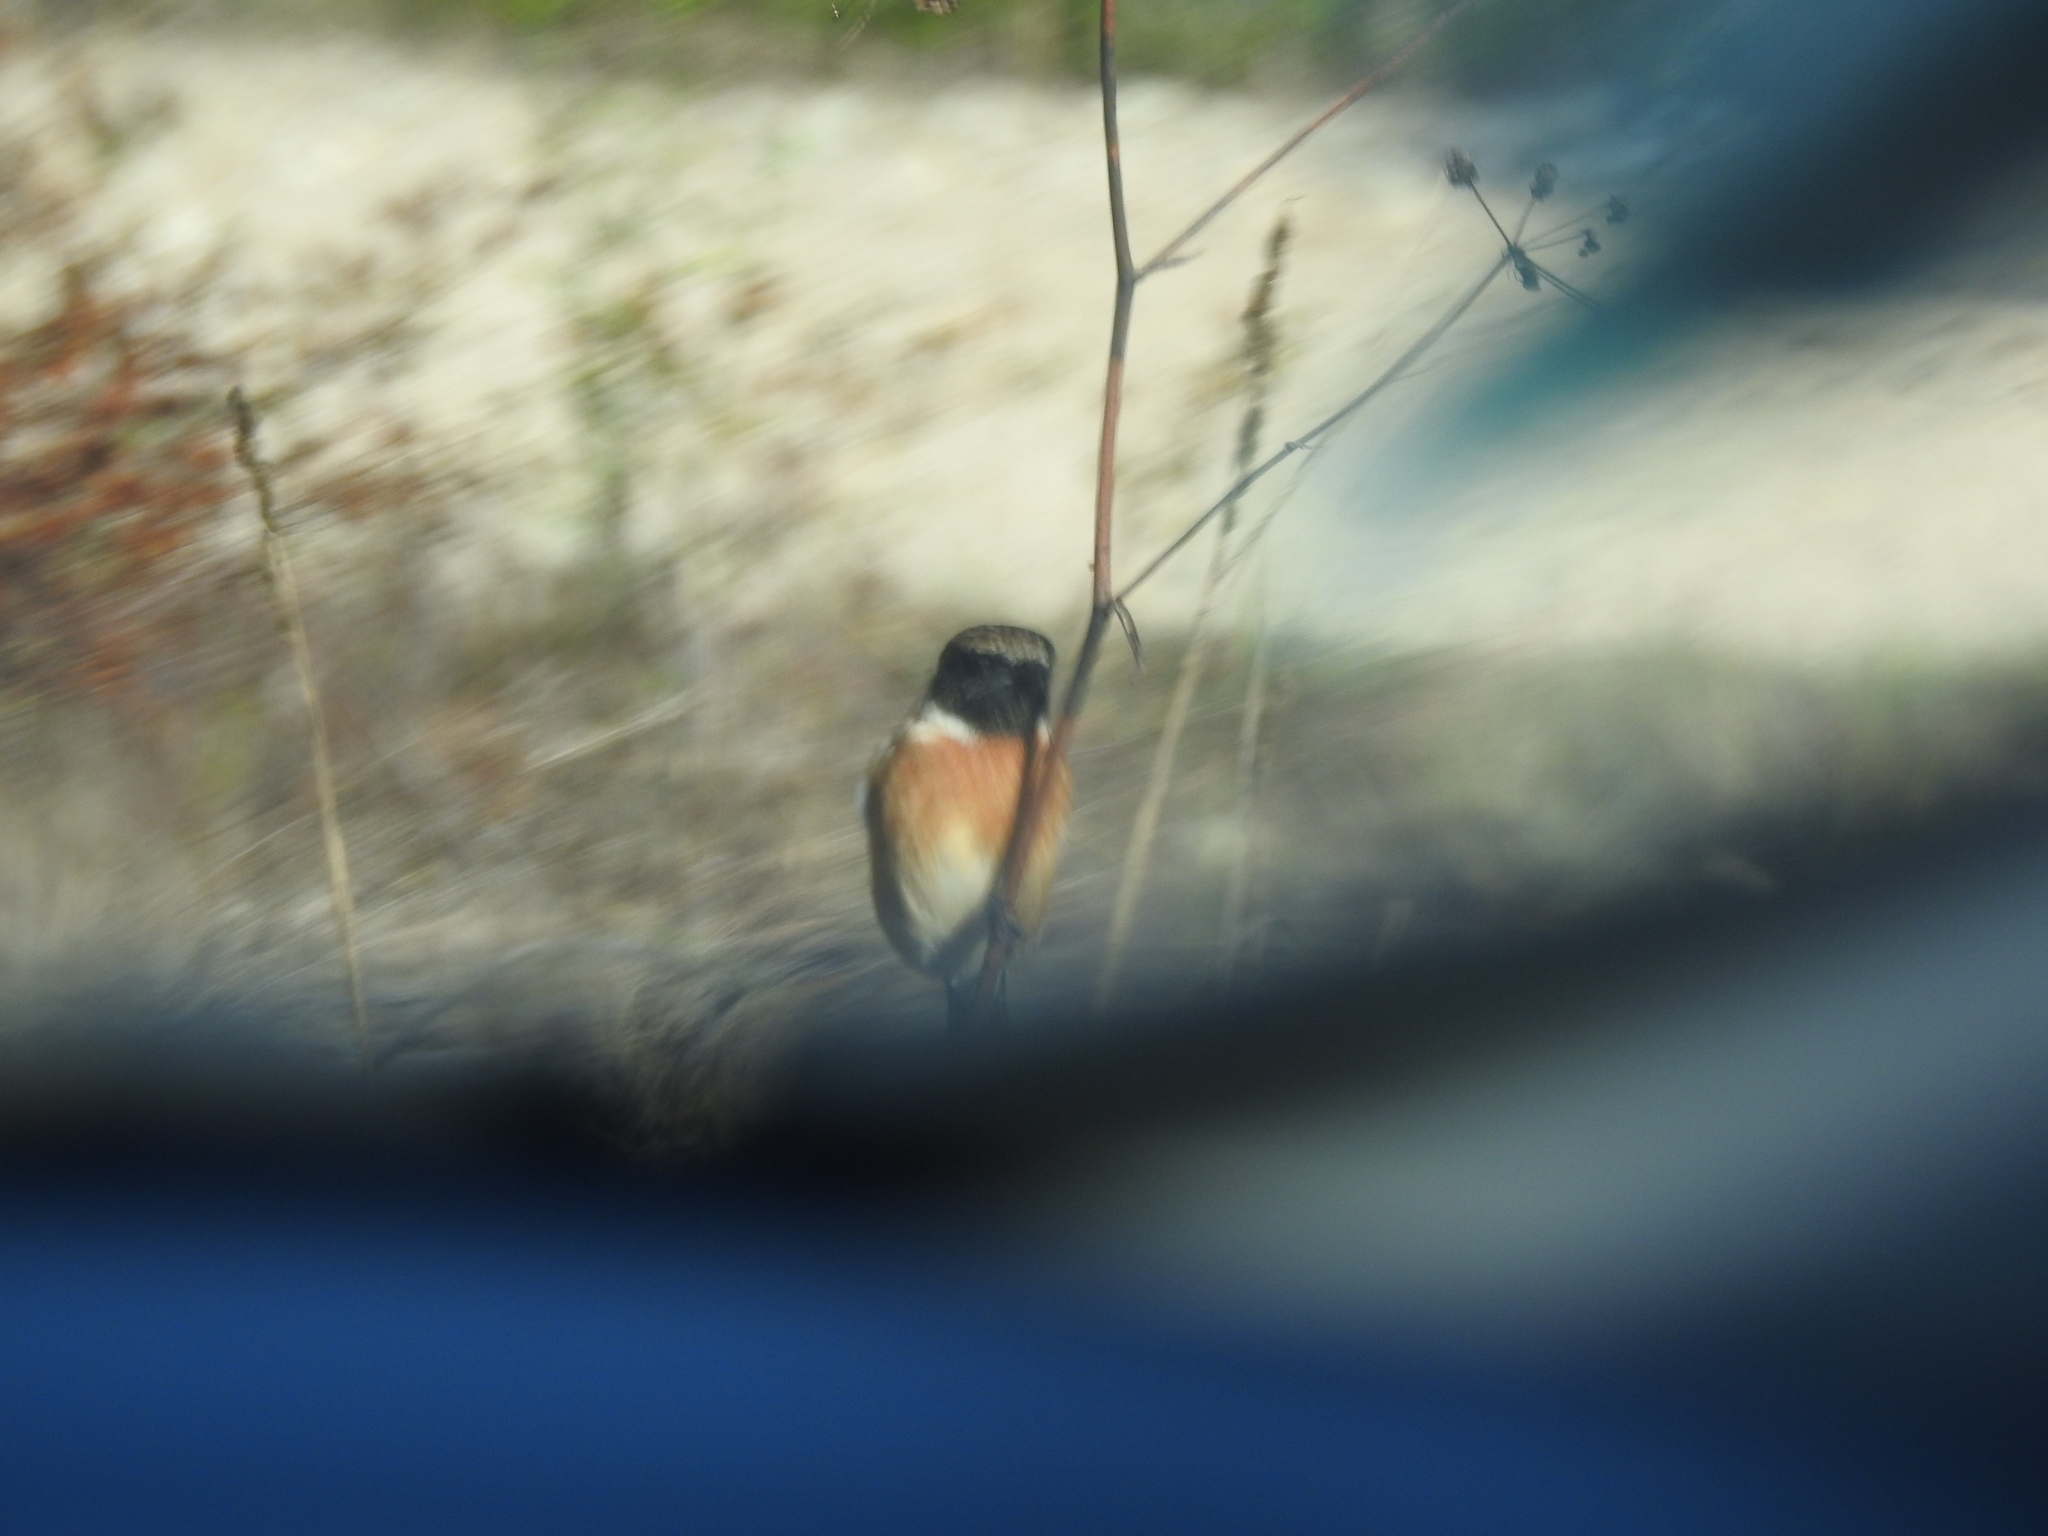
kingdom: Animalia
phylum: Chordata
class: Aves
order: Passeriformes
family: Muscicapidae
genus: Saxicola
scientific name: Saxicola rubicola
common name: European stonechat
